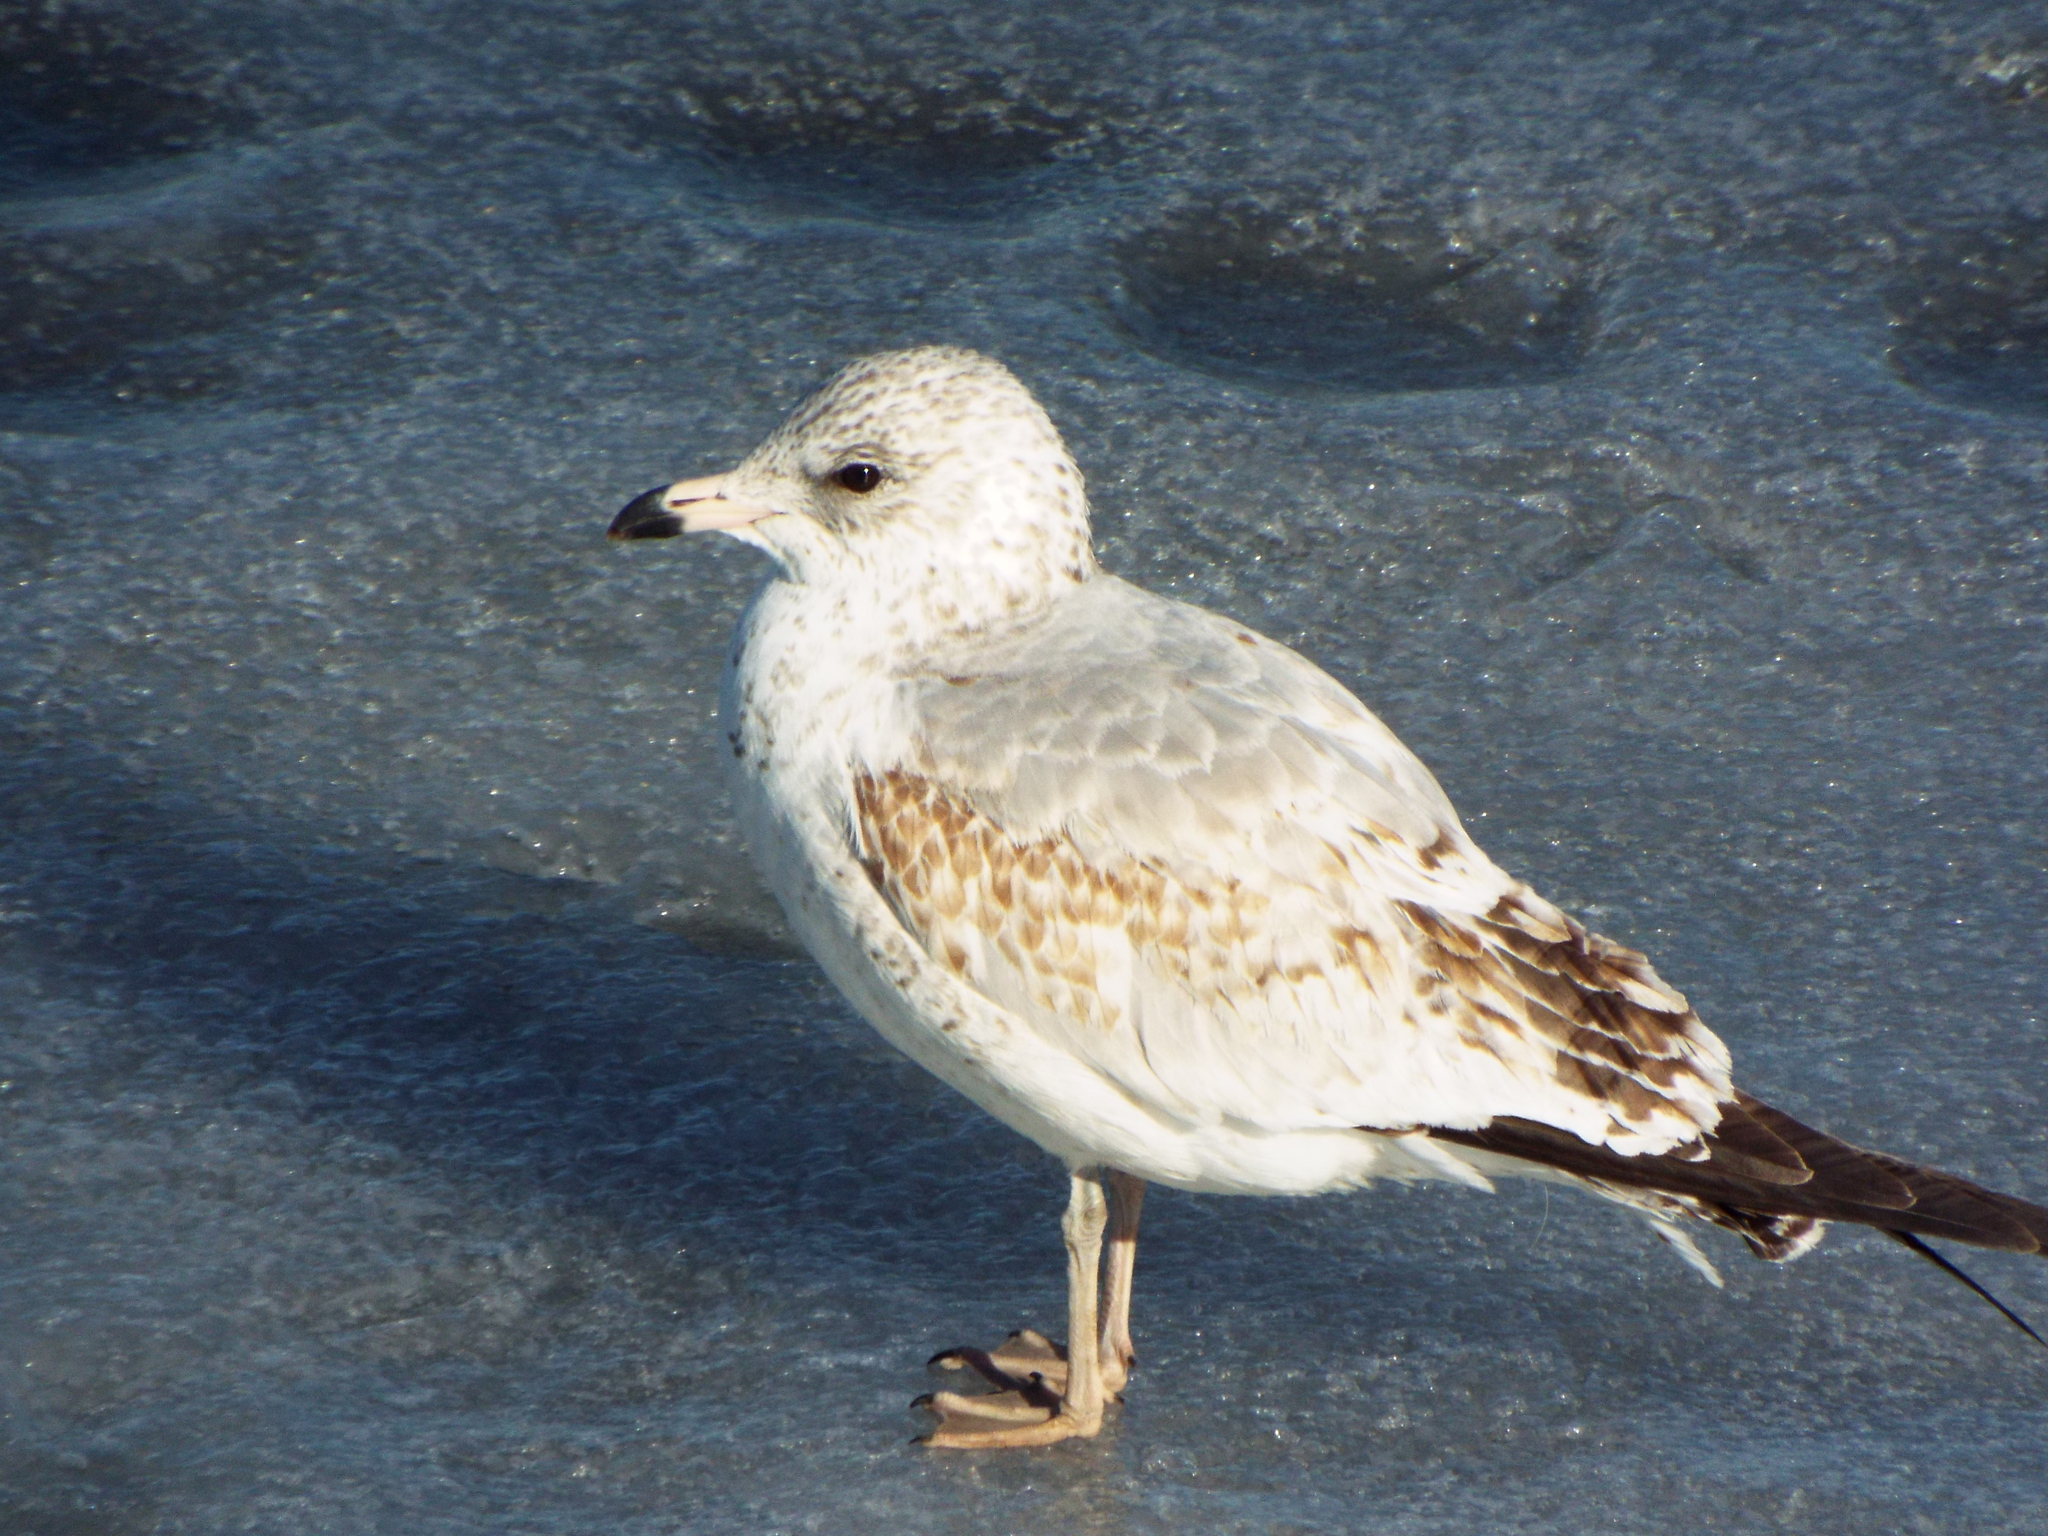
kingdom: Animalia
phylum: Chordata
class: Aves
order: Charadriiformes
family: Laridae
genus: Larus
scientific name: Larus delawarensis
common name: Ring-billed gull
